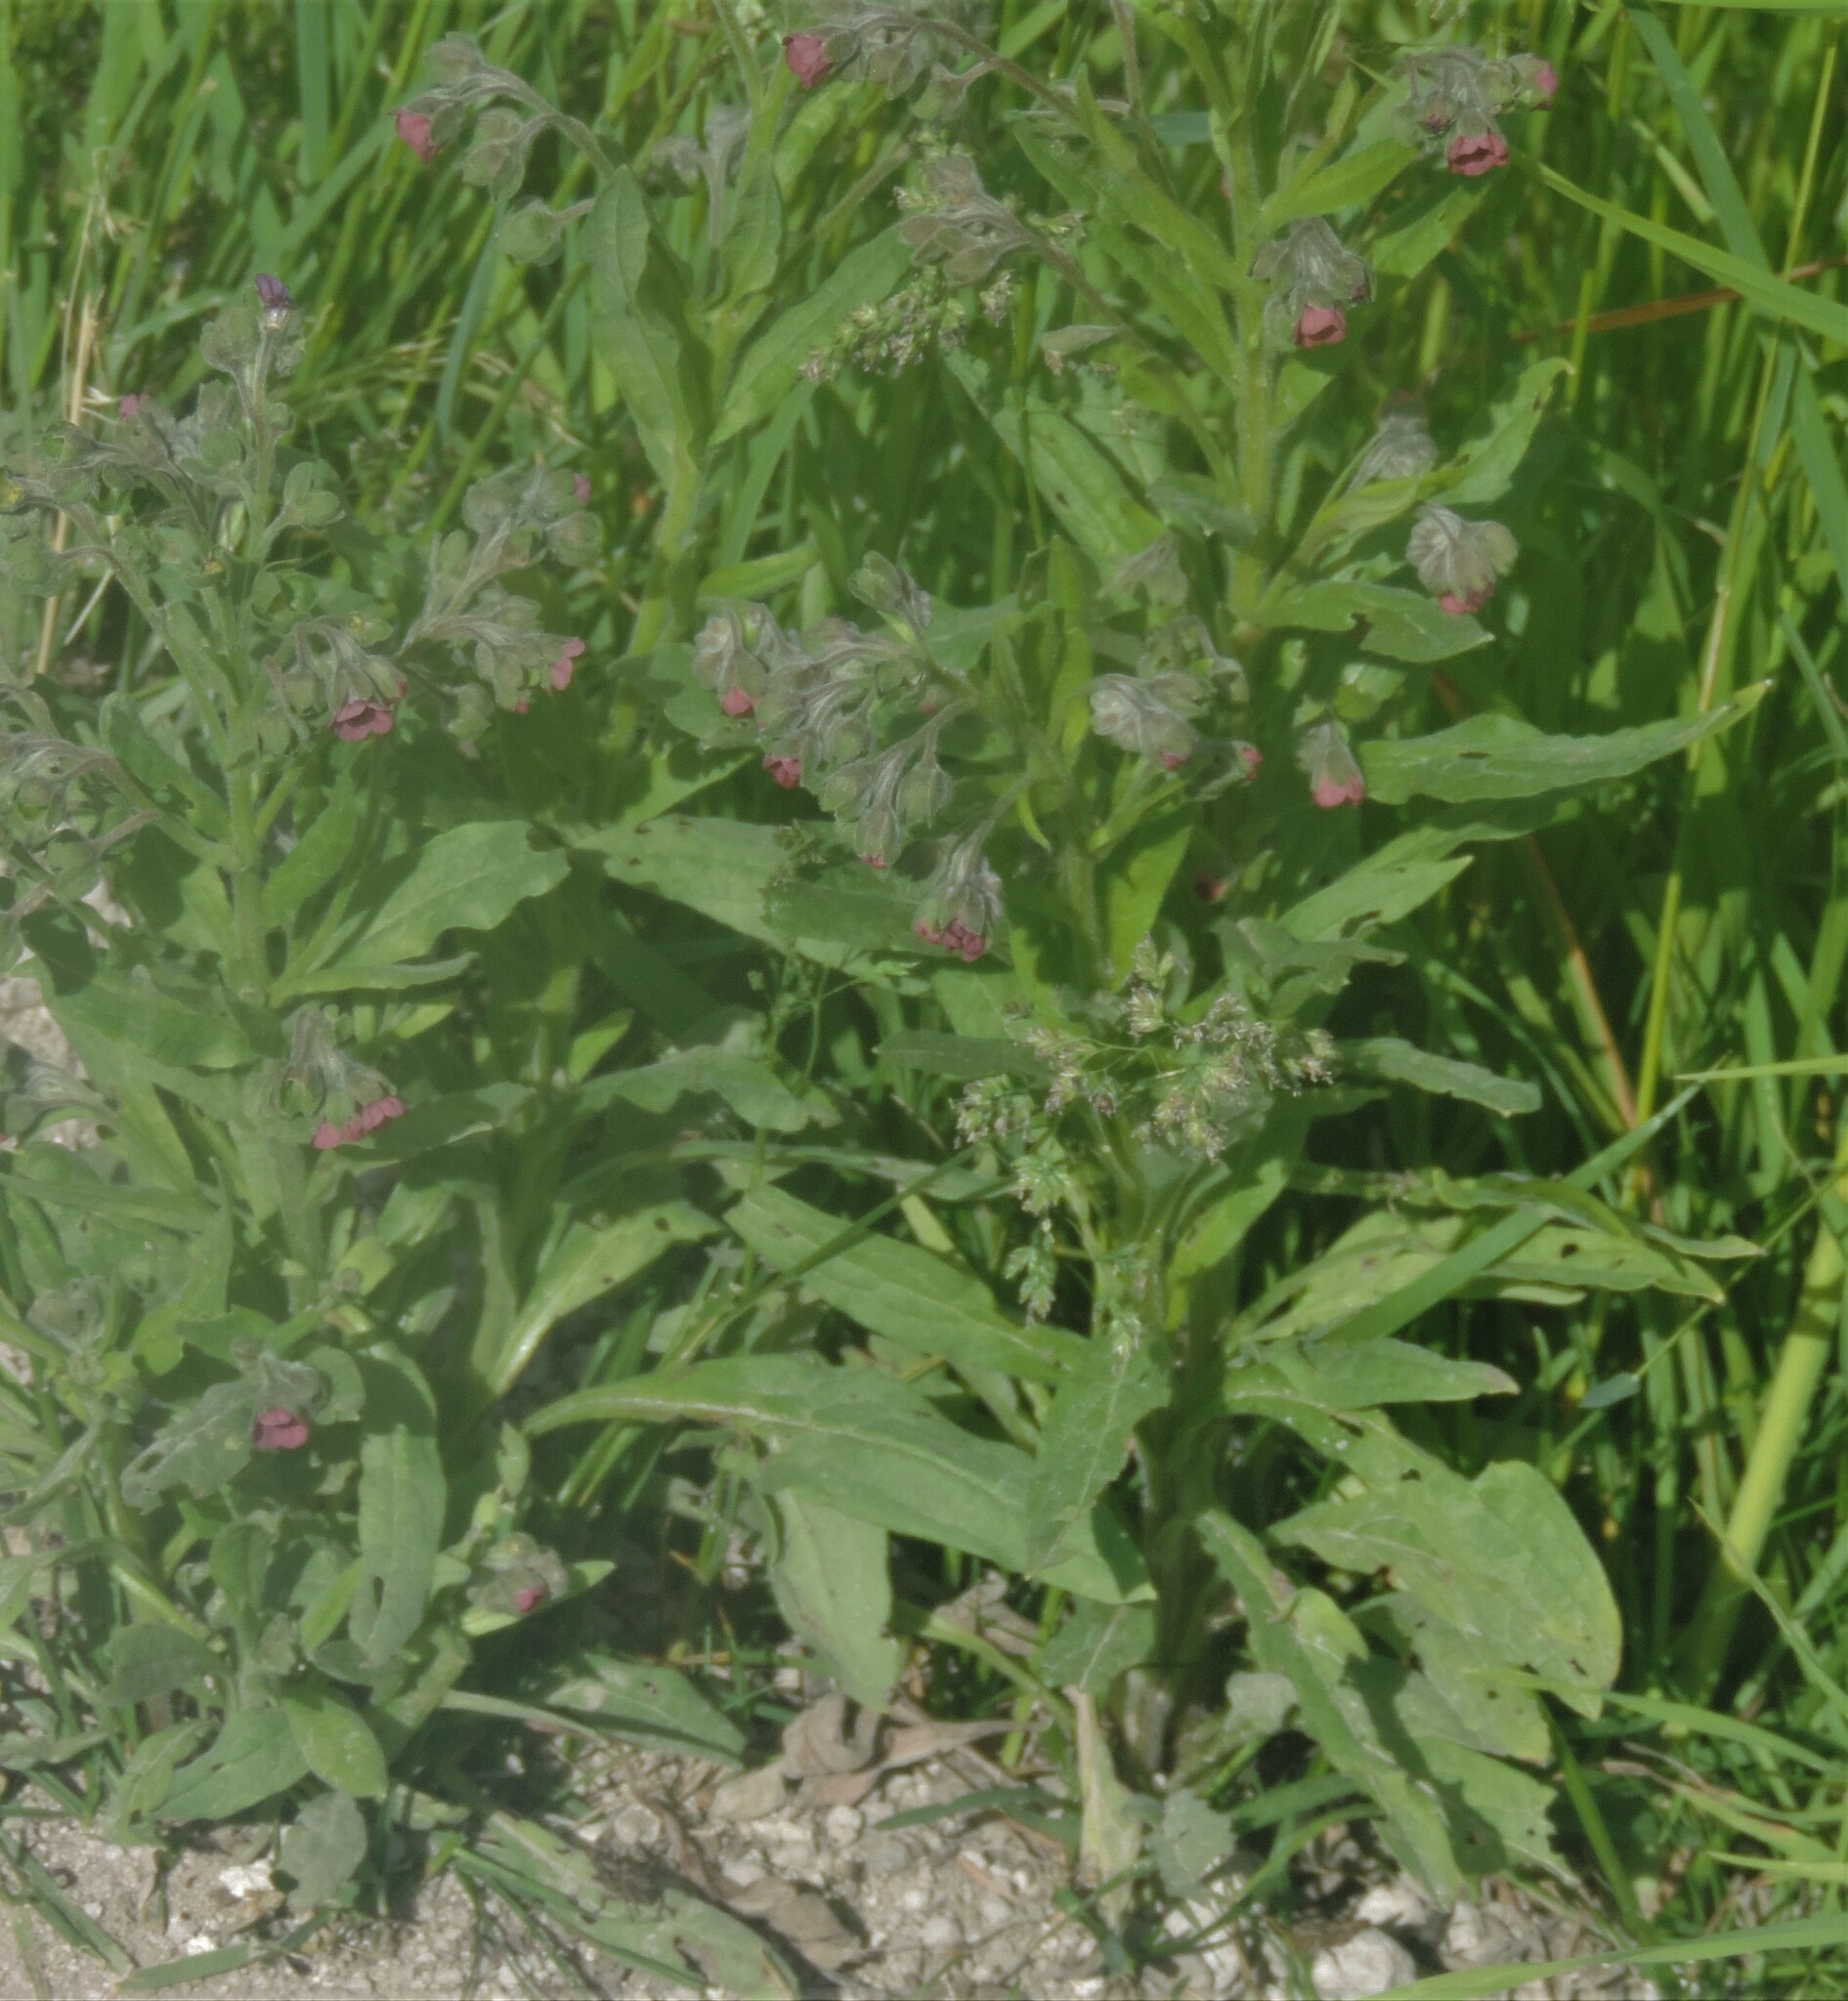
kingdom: Plantae
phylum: Tracheophyta
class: Magnoliopsida
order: Boraginales
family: Boraginaceae
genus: Cynoglossum
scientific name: Cynoglossum officinale
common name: Hound's-tongue
